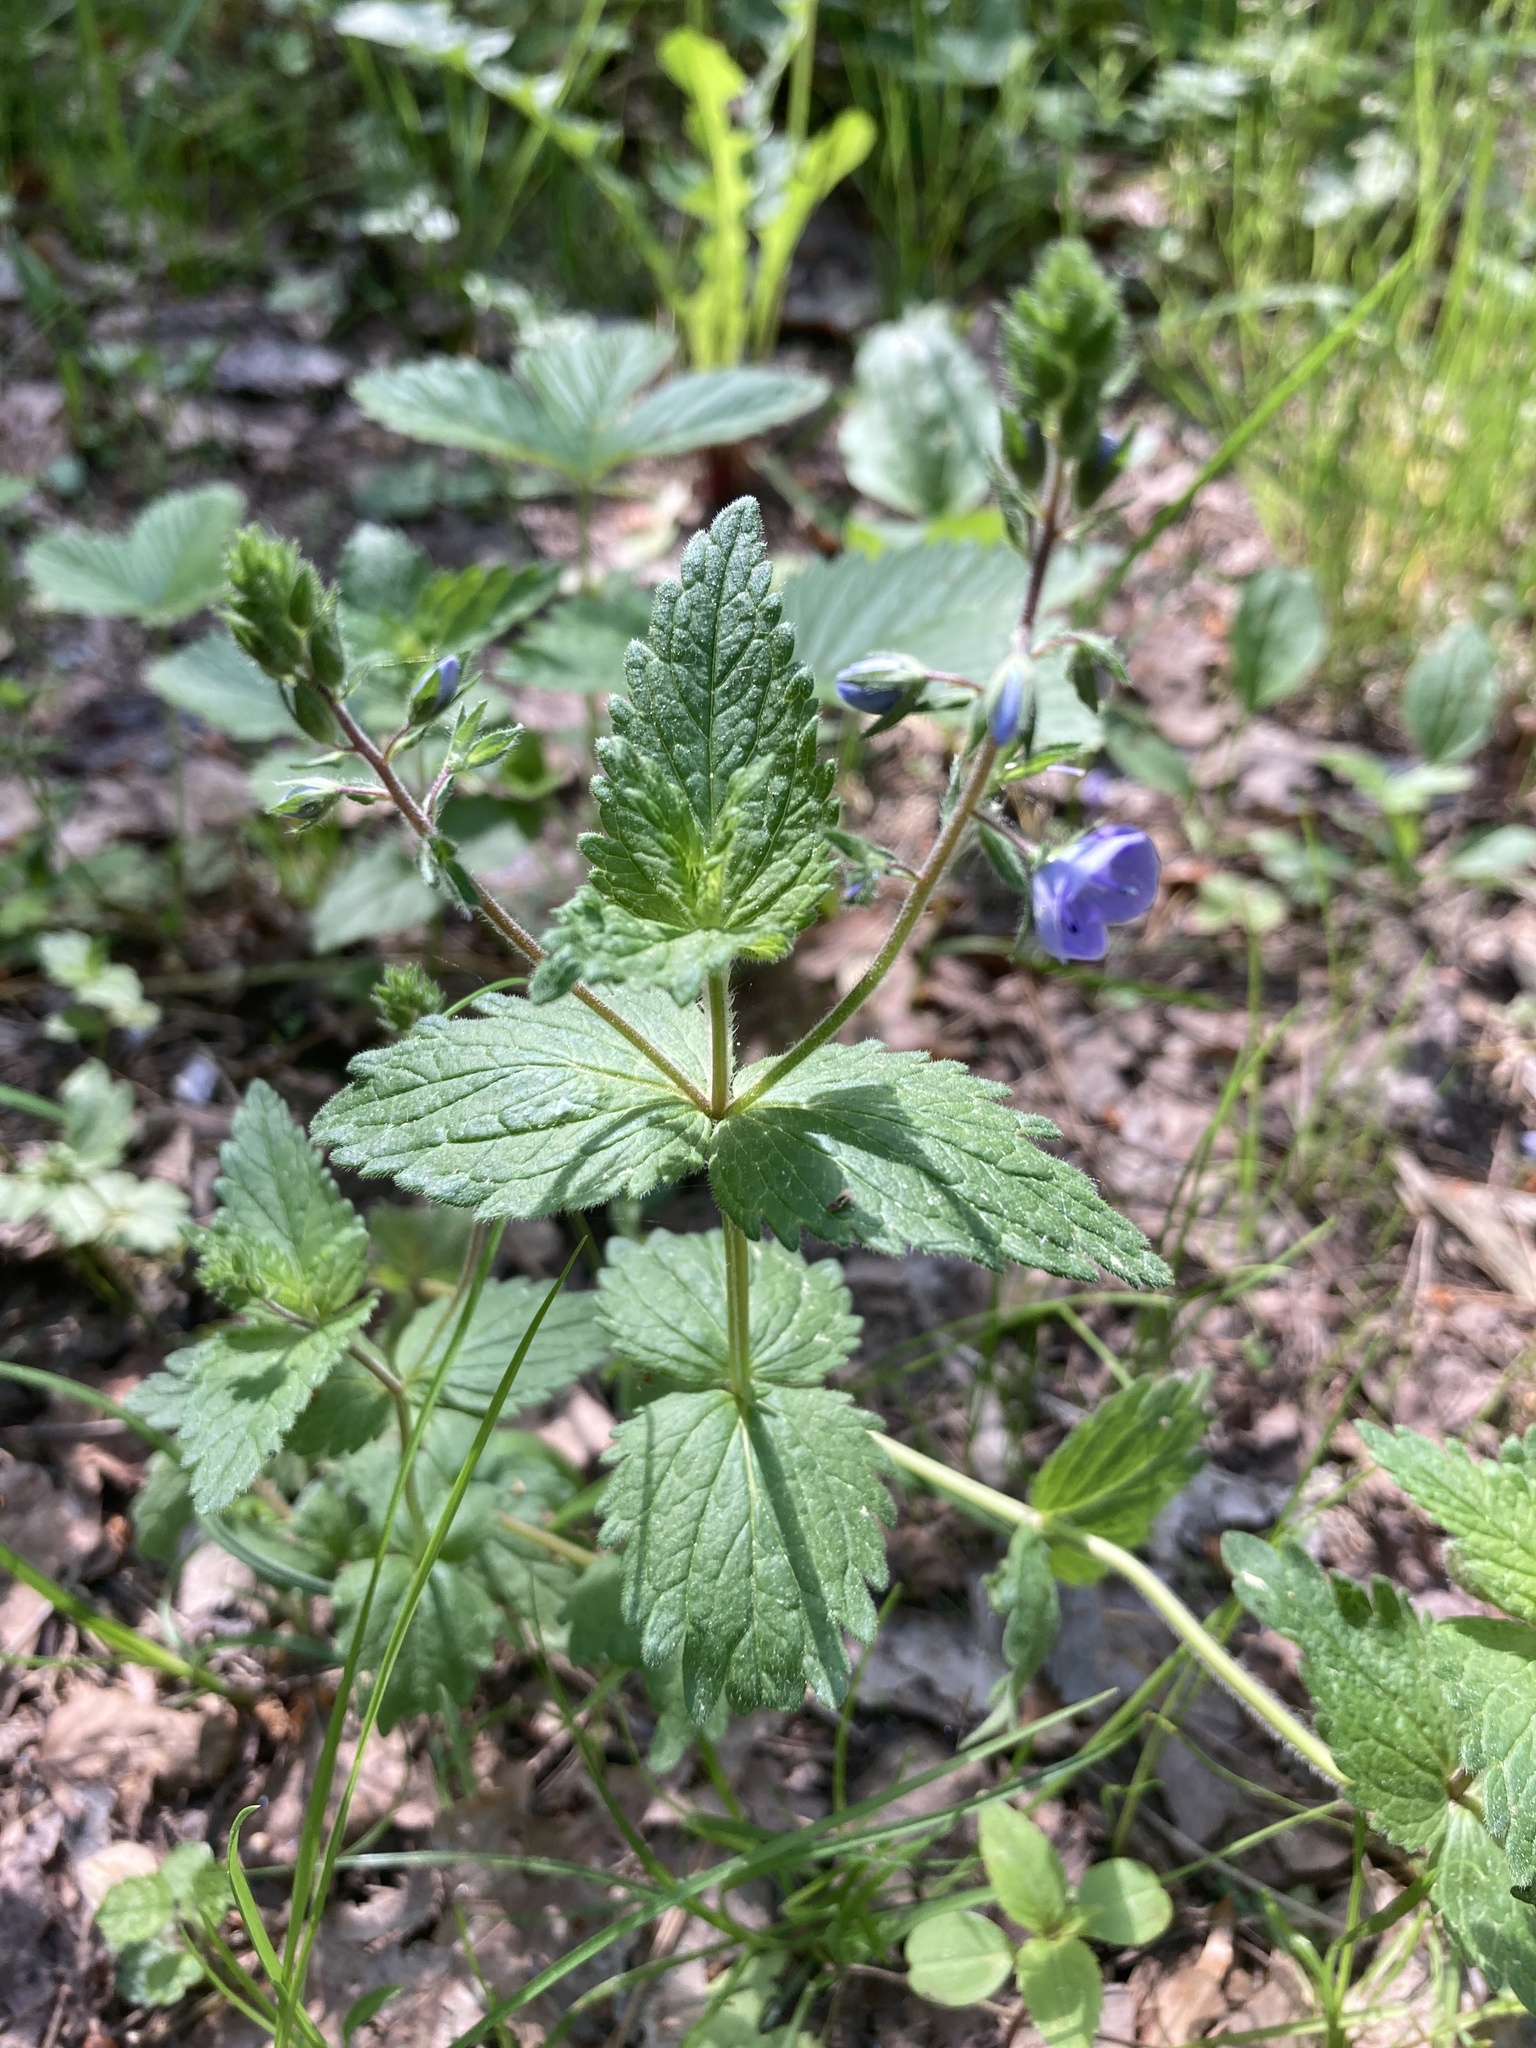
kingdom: Plantae
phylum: Tracheophyta
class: Magnoliopsida
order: Lamiales
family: Plantaginaceae
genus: Veronica
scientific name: Veronica chamaedrys
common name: Germander speedwell
